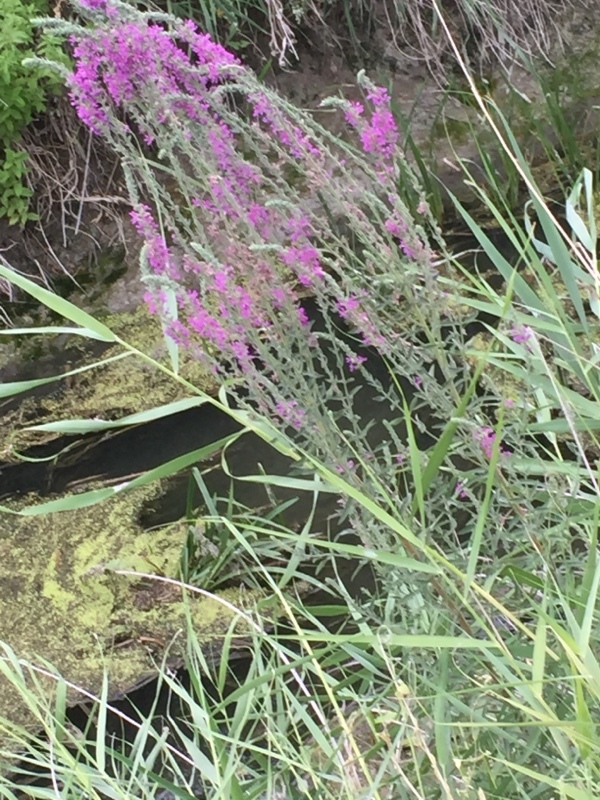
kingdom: Plantae
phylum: Tracheophyta
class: Magnoliopsida
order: Myrtales
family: Lythraceae
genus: Lythrum
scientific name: Lythrum salicaria
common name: Purple loosestrife
